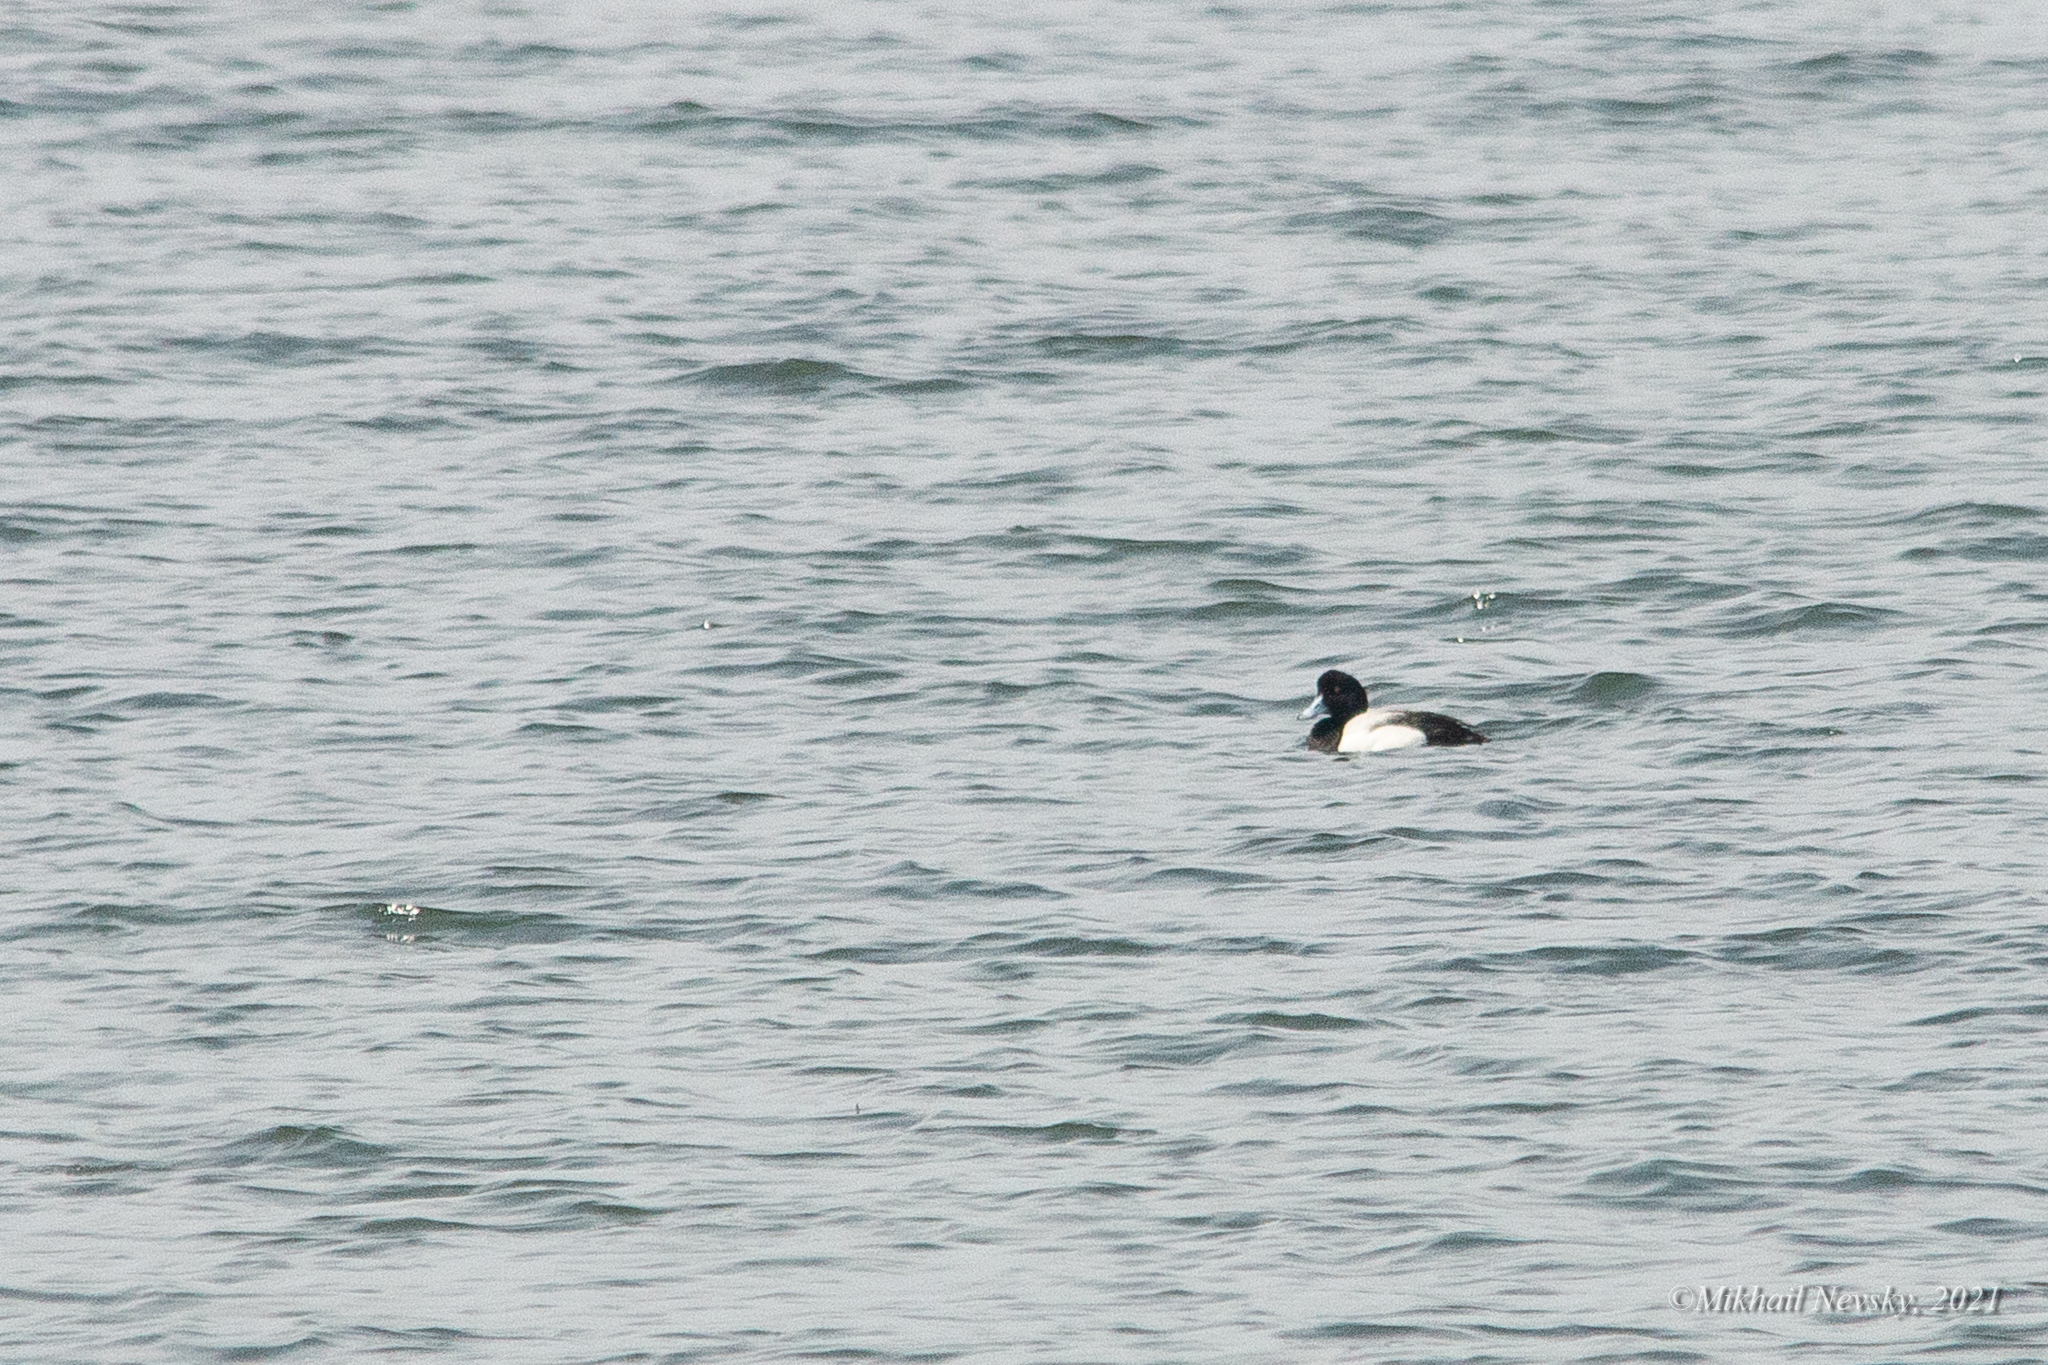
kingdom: Animalia
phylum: Chordata
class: Aves
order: Anseriformes
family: Anatidae
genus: Aythya
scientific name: Aythya marila
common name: Greater scaup
